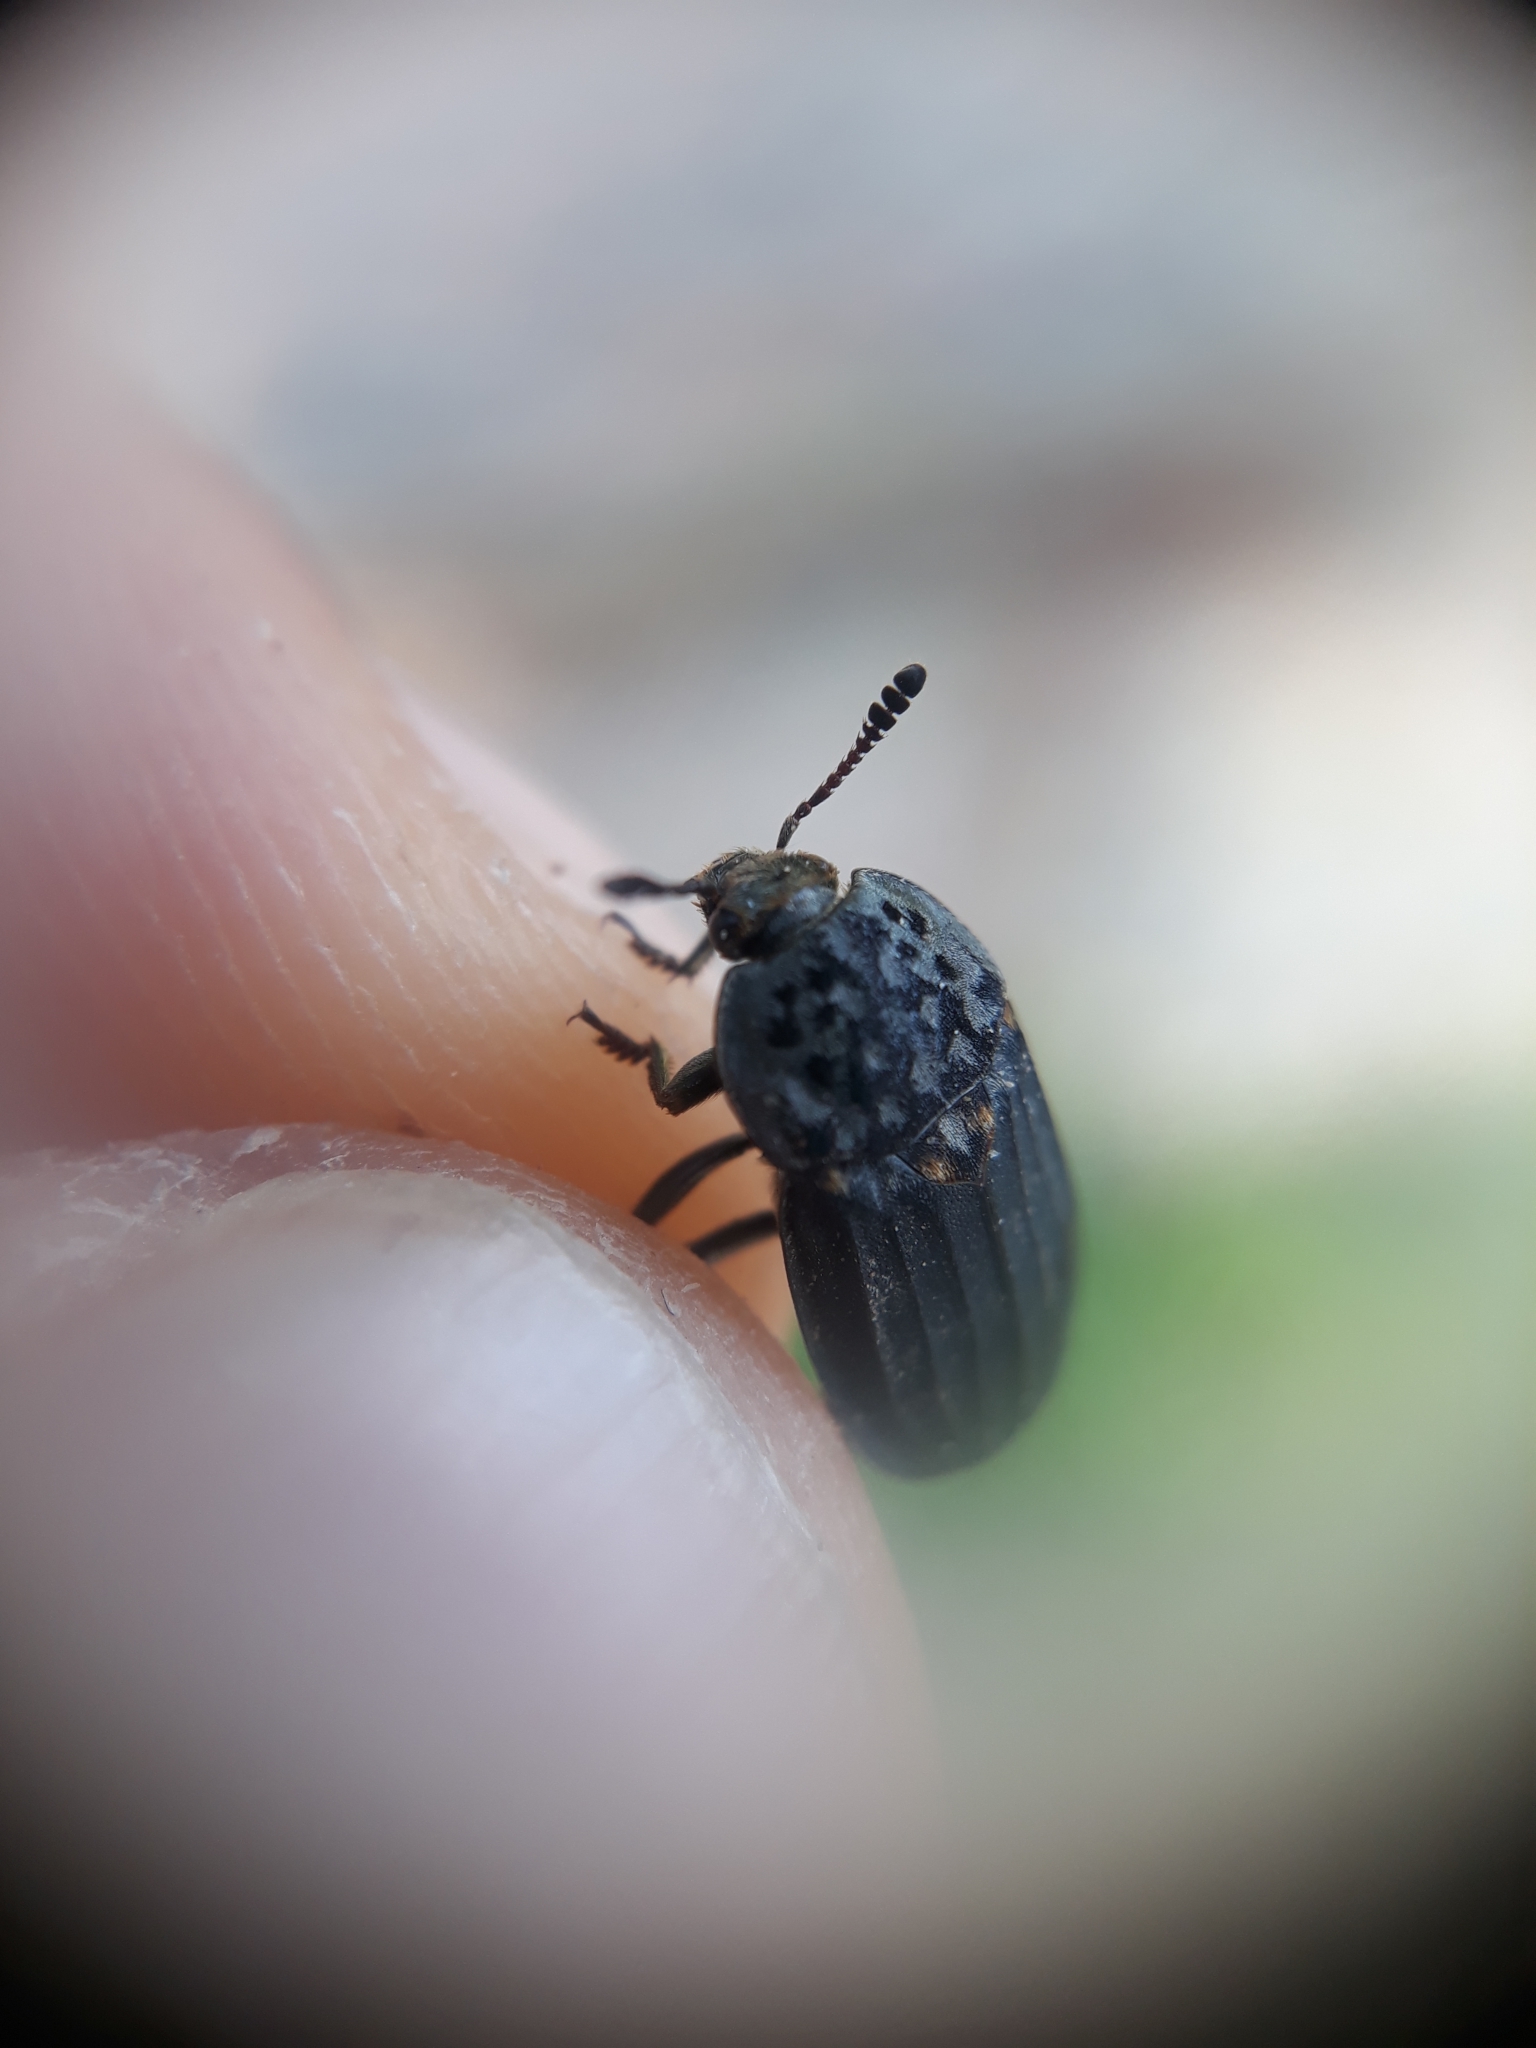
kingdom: Animalia
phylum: Arthropoda
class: Insecta
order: Coleoptera
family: Staphylinidae
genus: Thanatophilus
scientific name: Thanatophilus sinuatus
